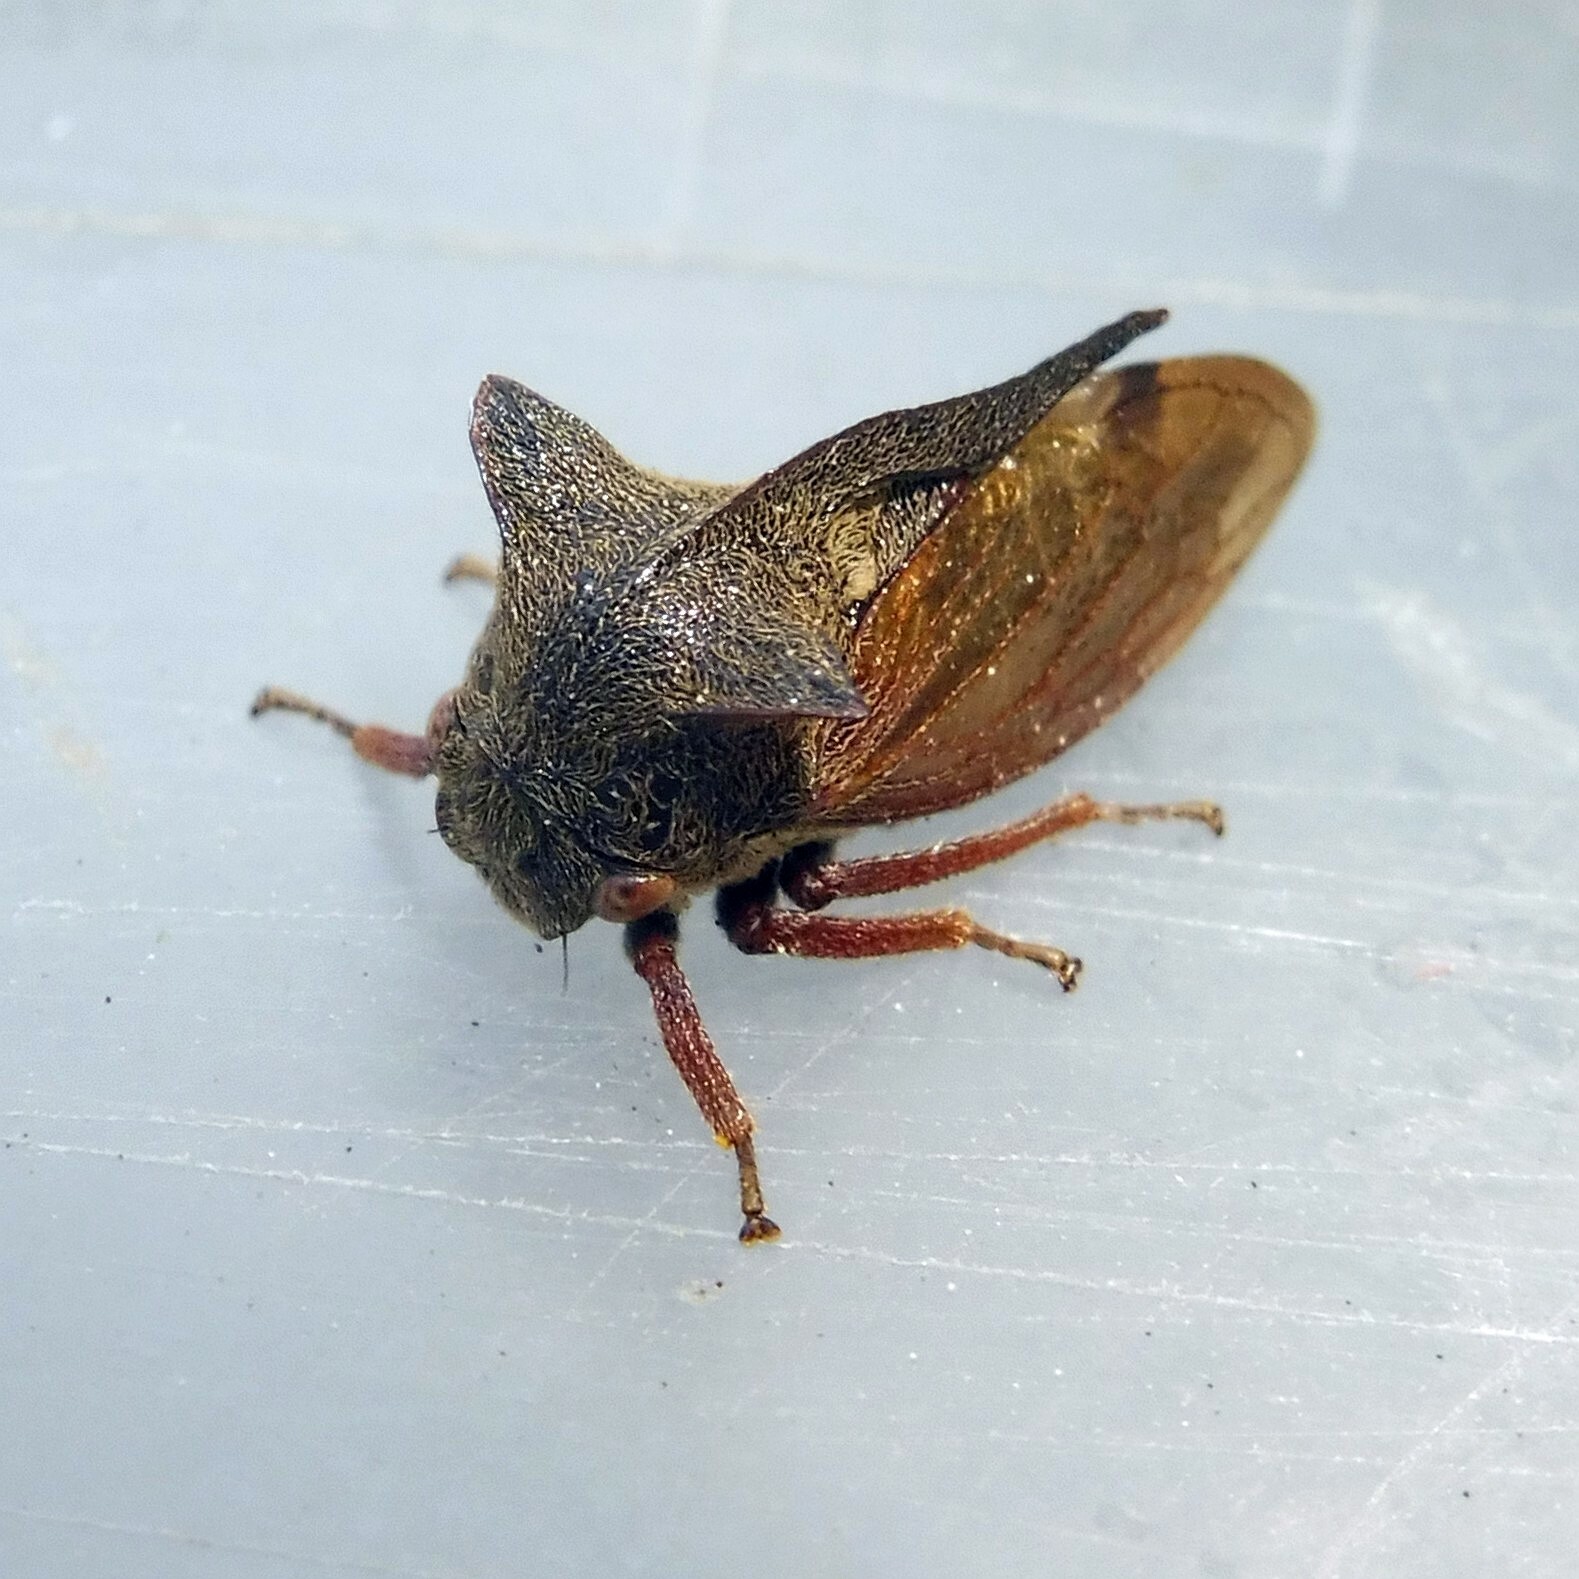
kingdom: Animalia
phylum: Arthropoda
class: Insecta
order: Hemiptera
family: Membracidae
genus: Centrotus
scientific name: Centrotus cornuta
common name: Treehopper
